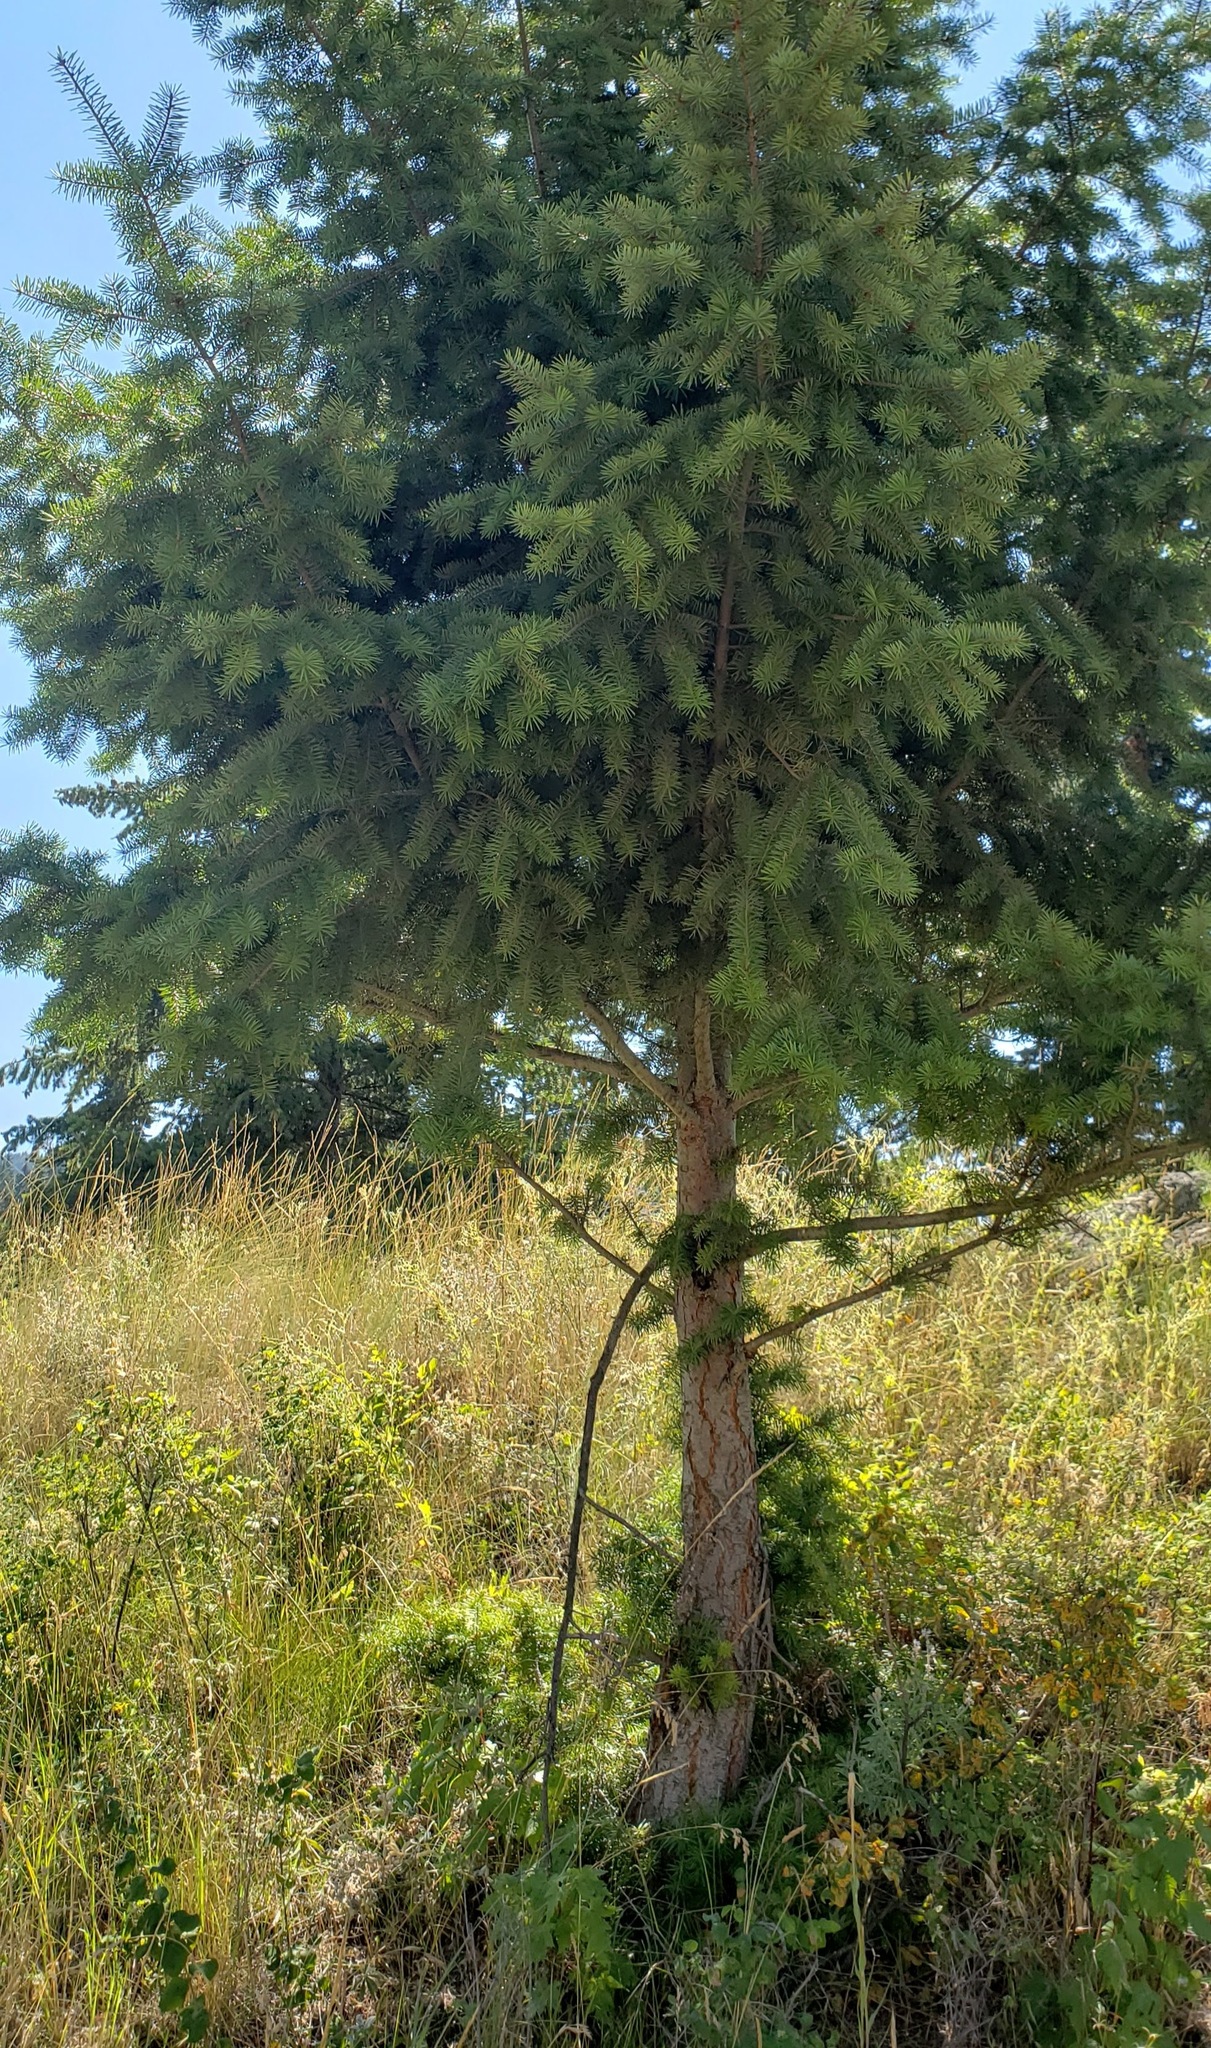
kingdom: Plantae
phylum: Tracheophyta
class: Pinopsida
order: Pinales
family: Pinaceae
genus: Pseudotsuga
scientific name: Pseudotsuga menziesii
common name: Douglas fir
